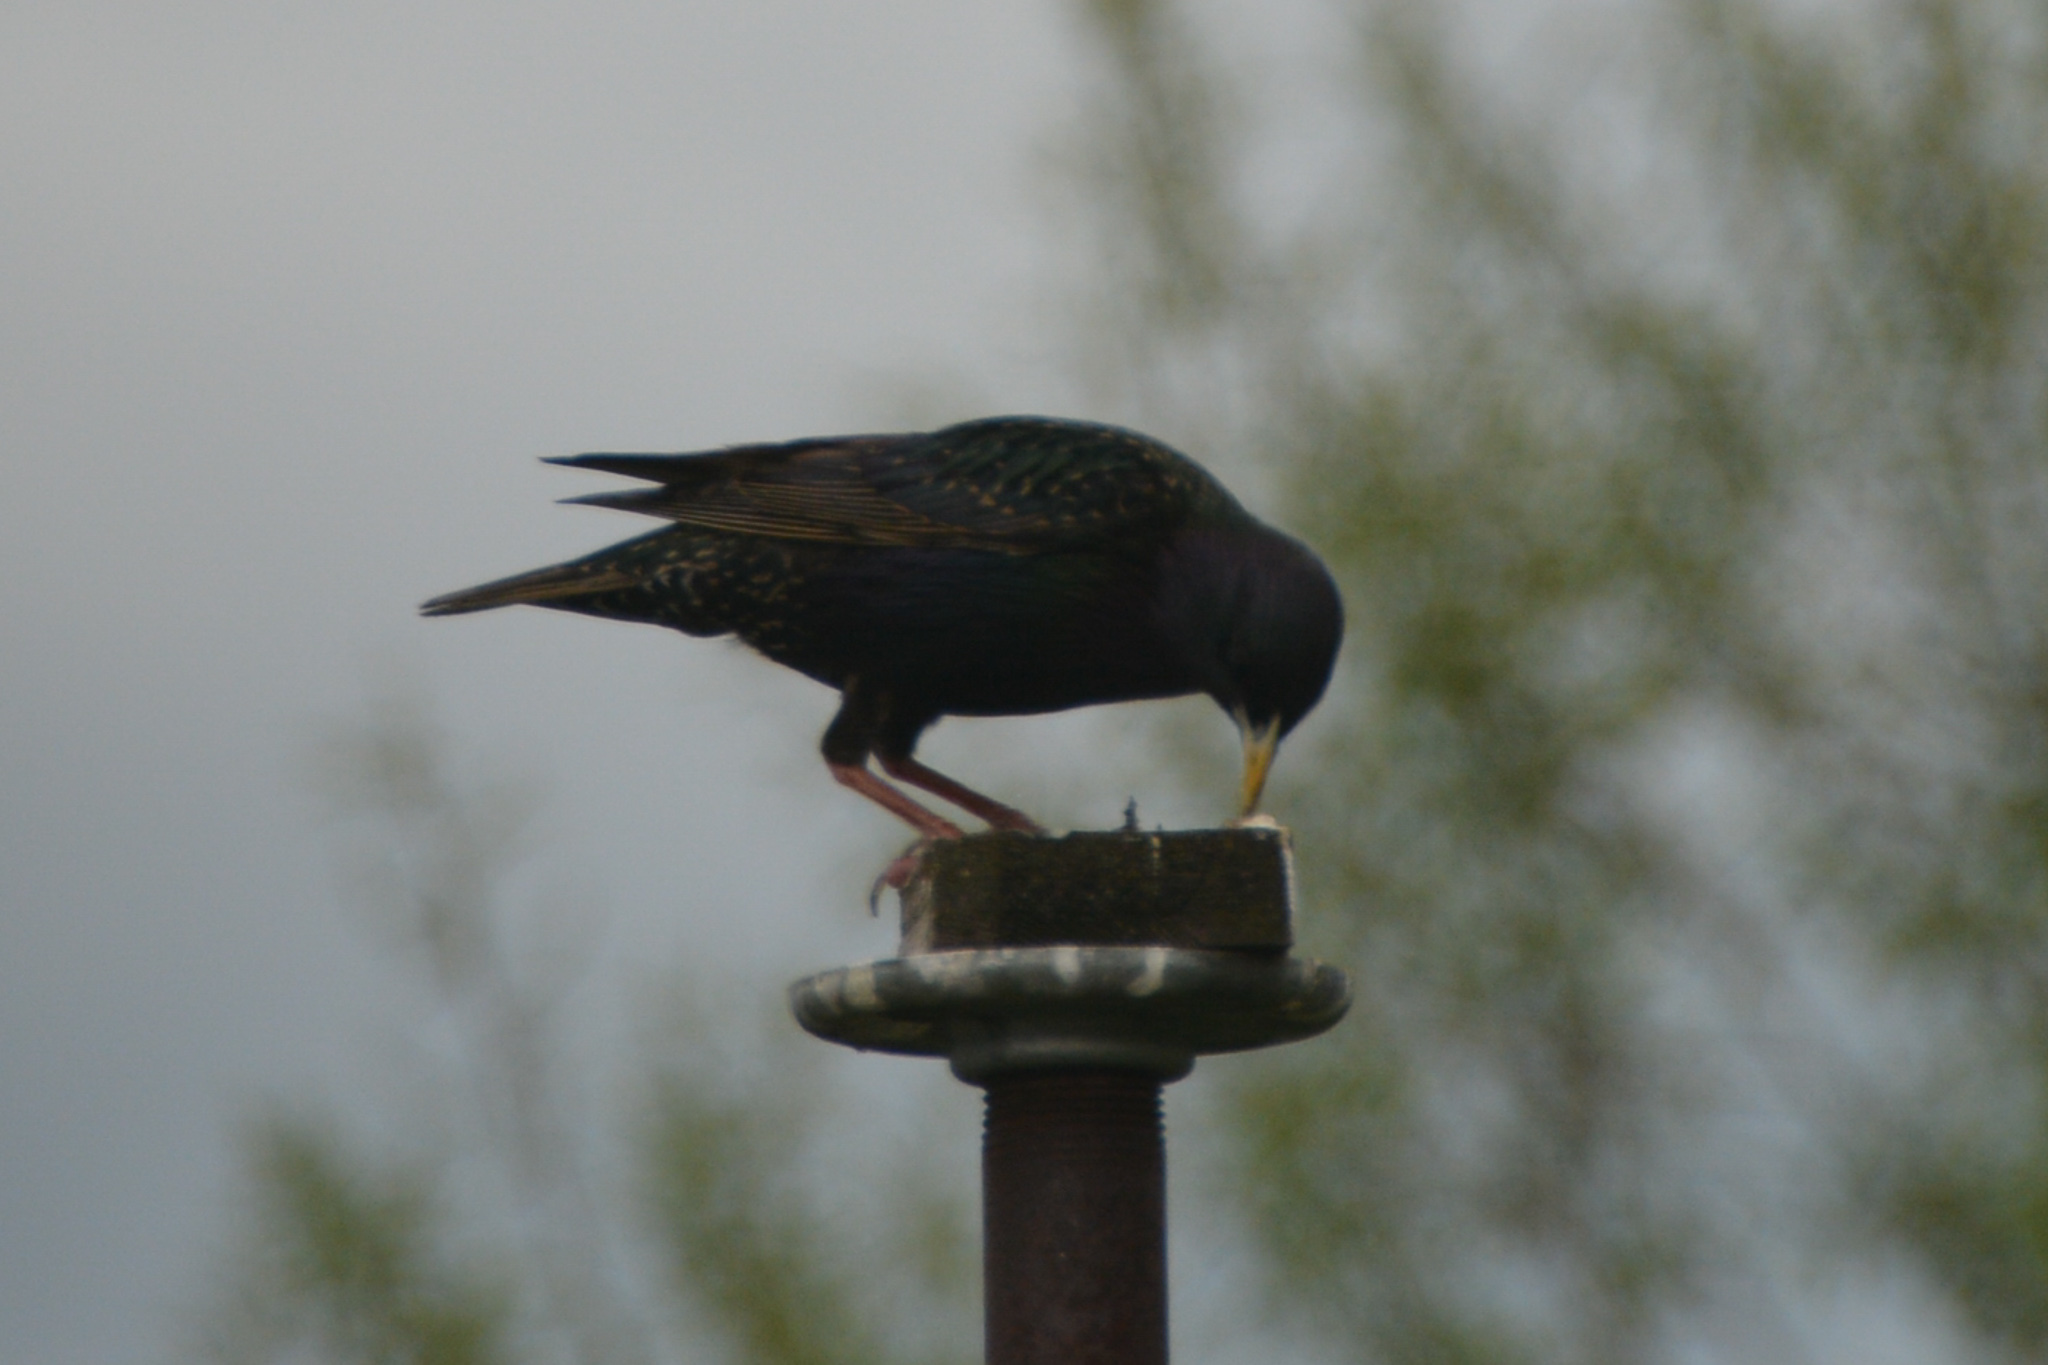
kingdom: Animalia
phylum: Chordata
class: Aves
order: Passeriformes
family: Sturnidae
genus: Sturnus
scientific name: Sturnus vulgaris
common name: Common starling
